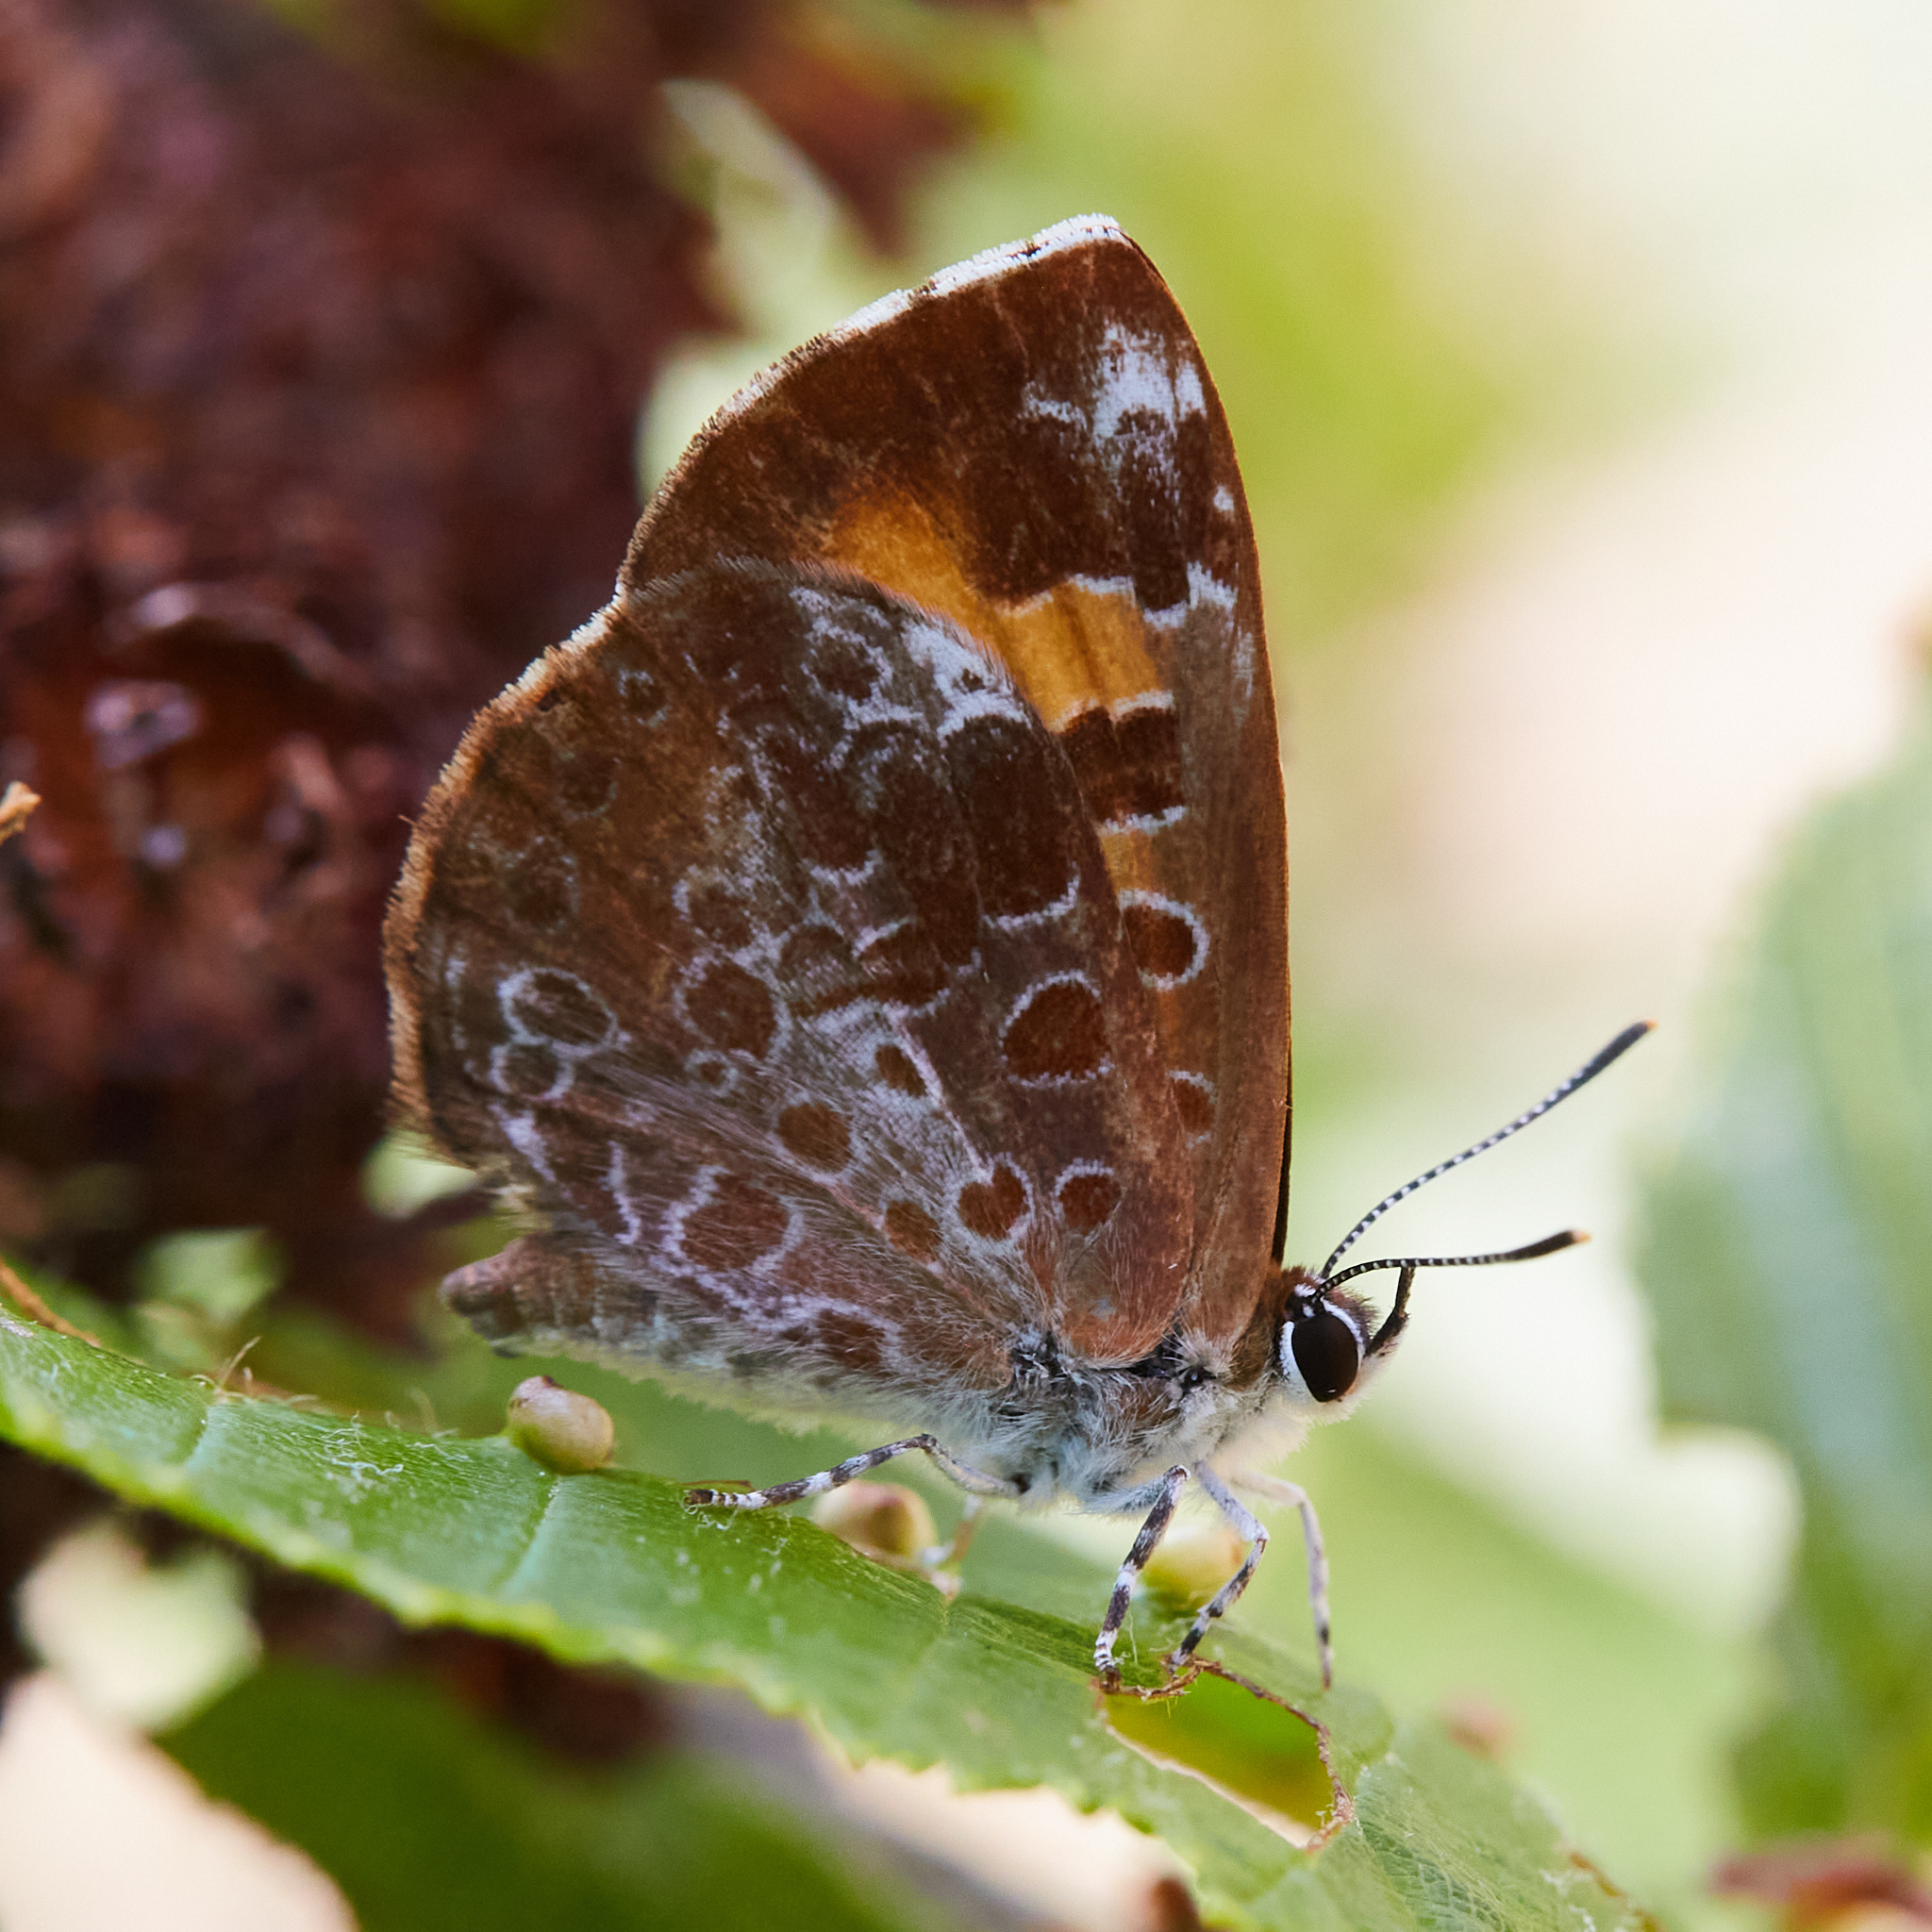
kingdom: Animalia
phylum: Arthropoda
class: Insecta
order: Lepidoptera
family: Lycaenidae
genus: Feniseca
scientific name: Feniseca tarquinius
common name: Harvester
